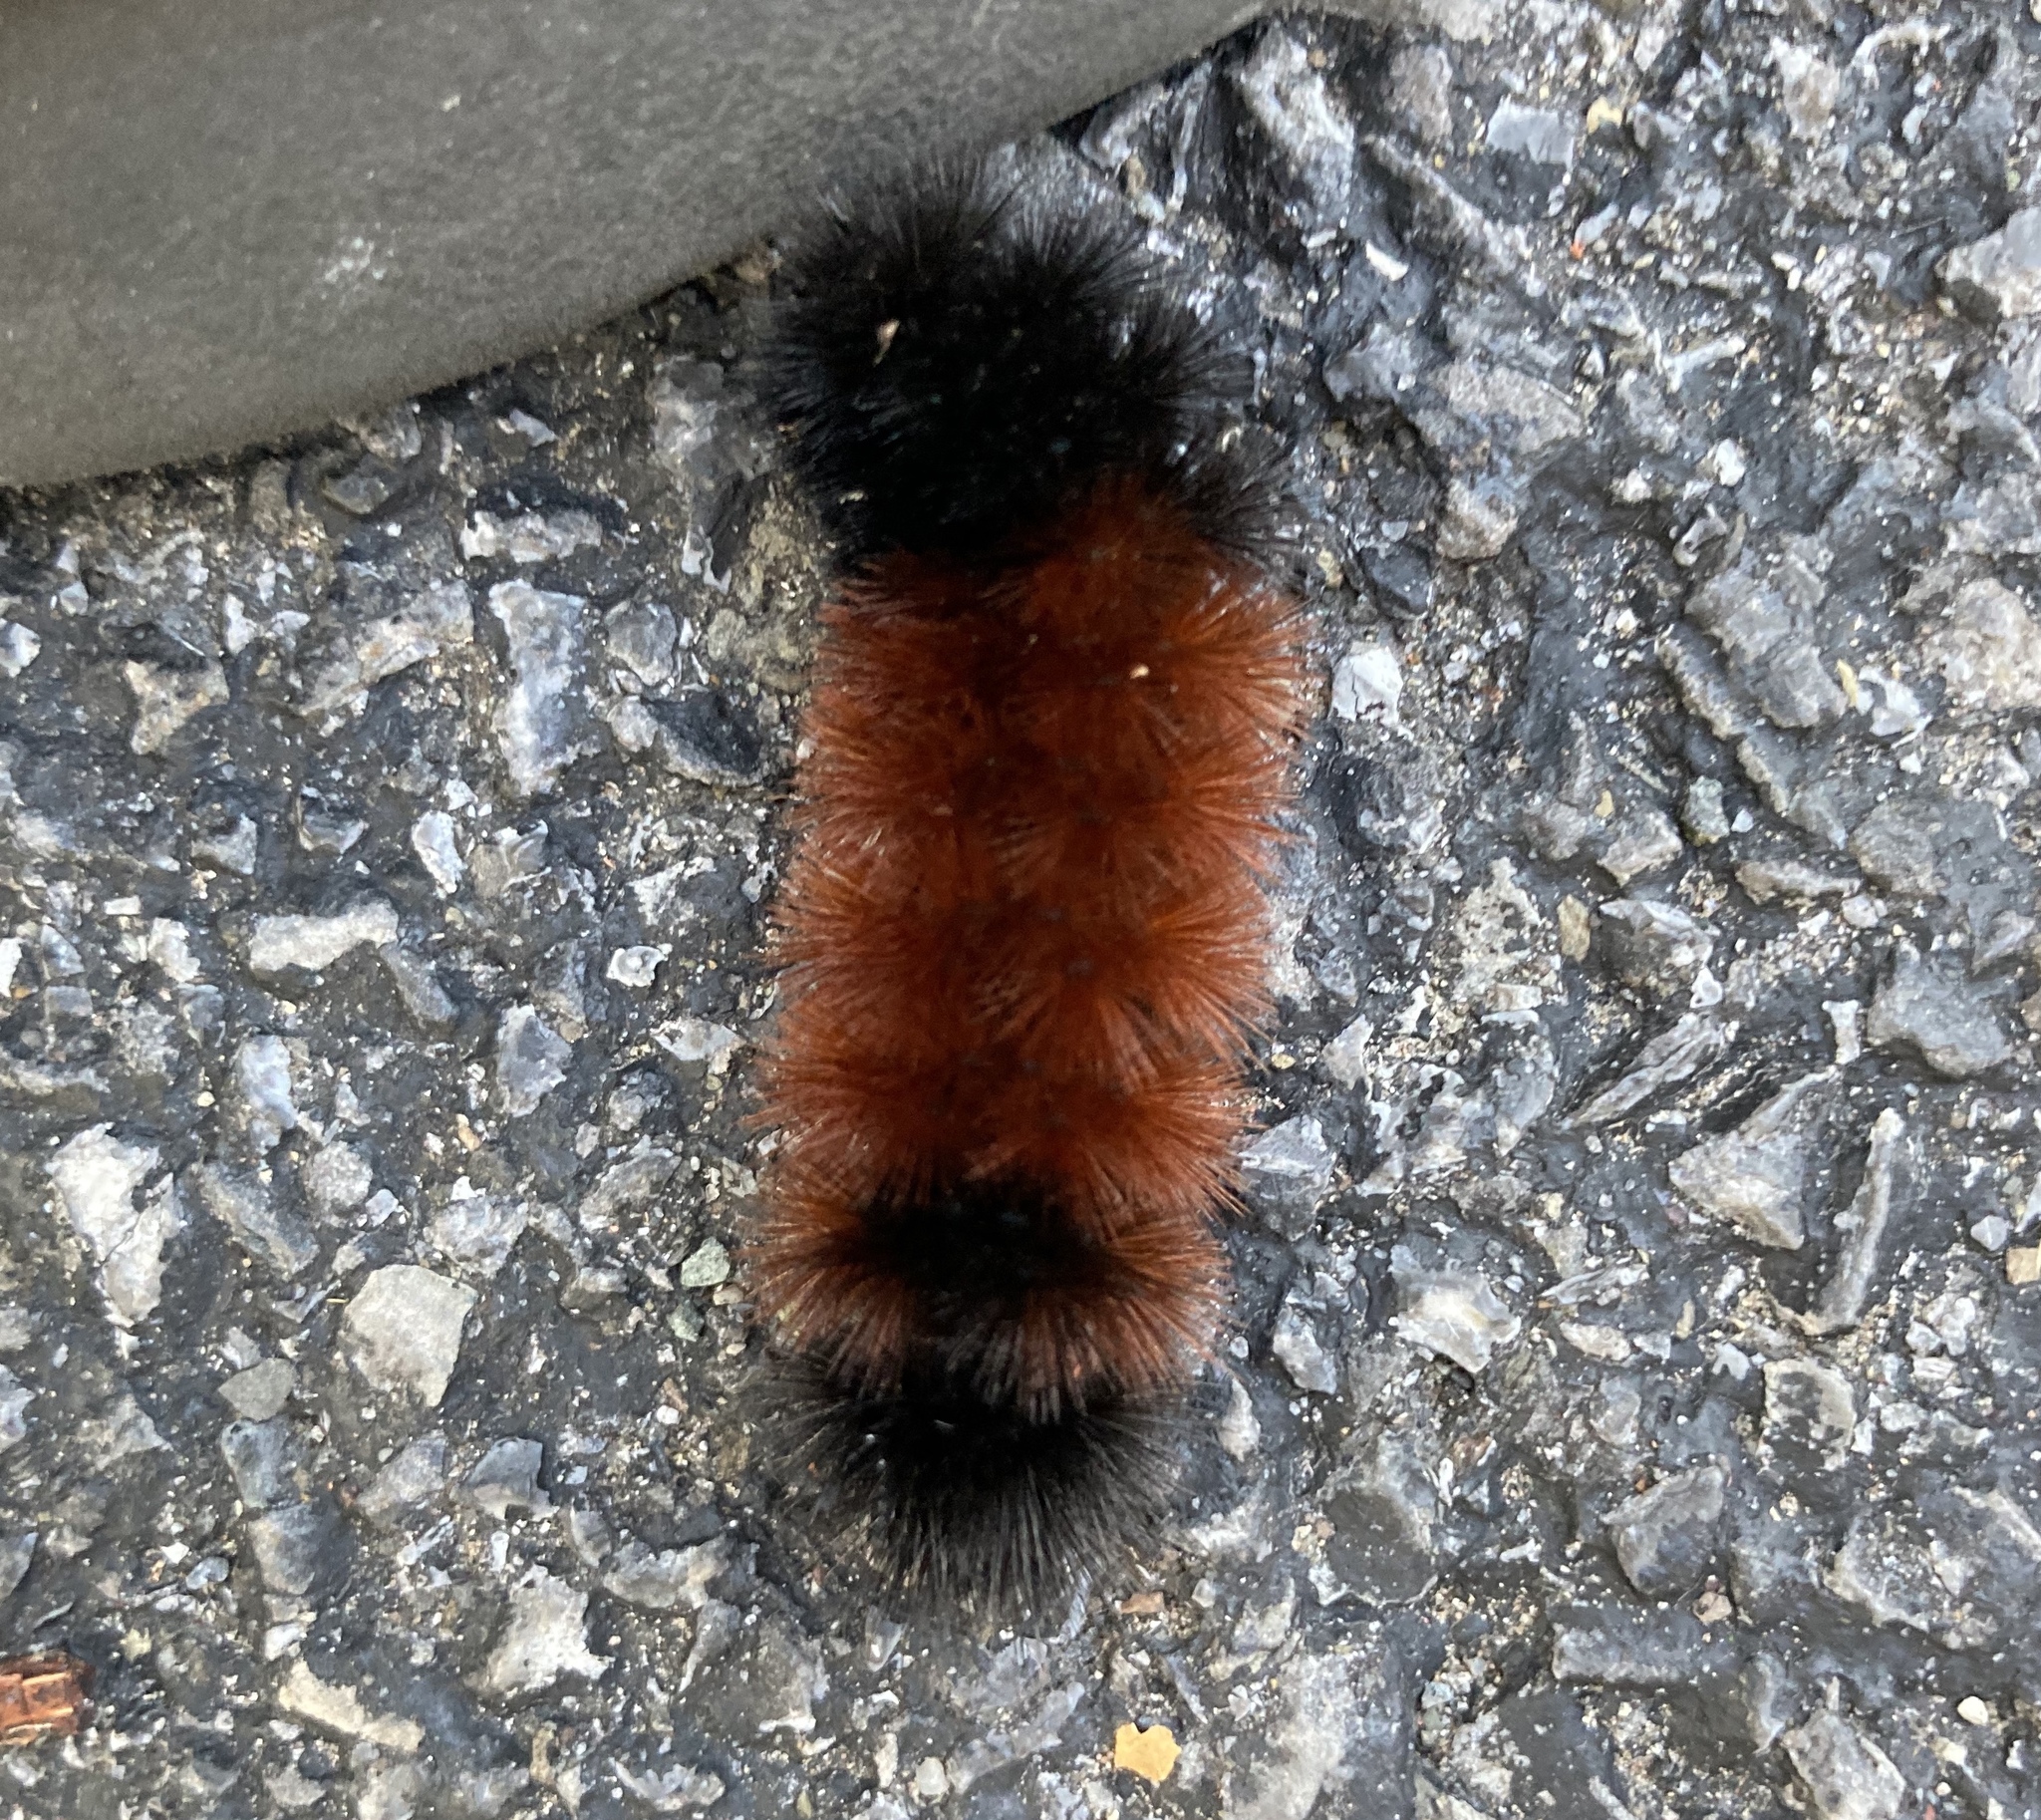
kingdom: Animalia
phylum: Arthropoda
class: Insecta
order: Lepidoptera
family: Erebidae
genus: Pyrrharctia
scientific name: Pyrrharctia isabella
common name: Isabella tiger moth
